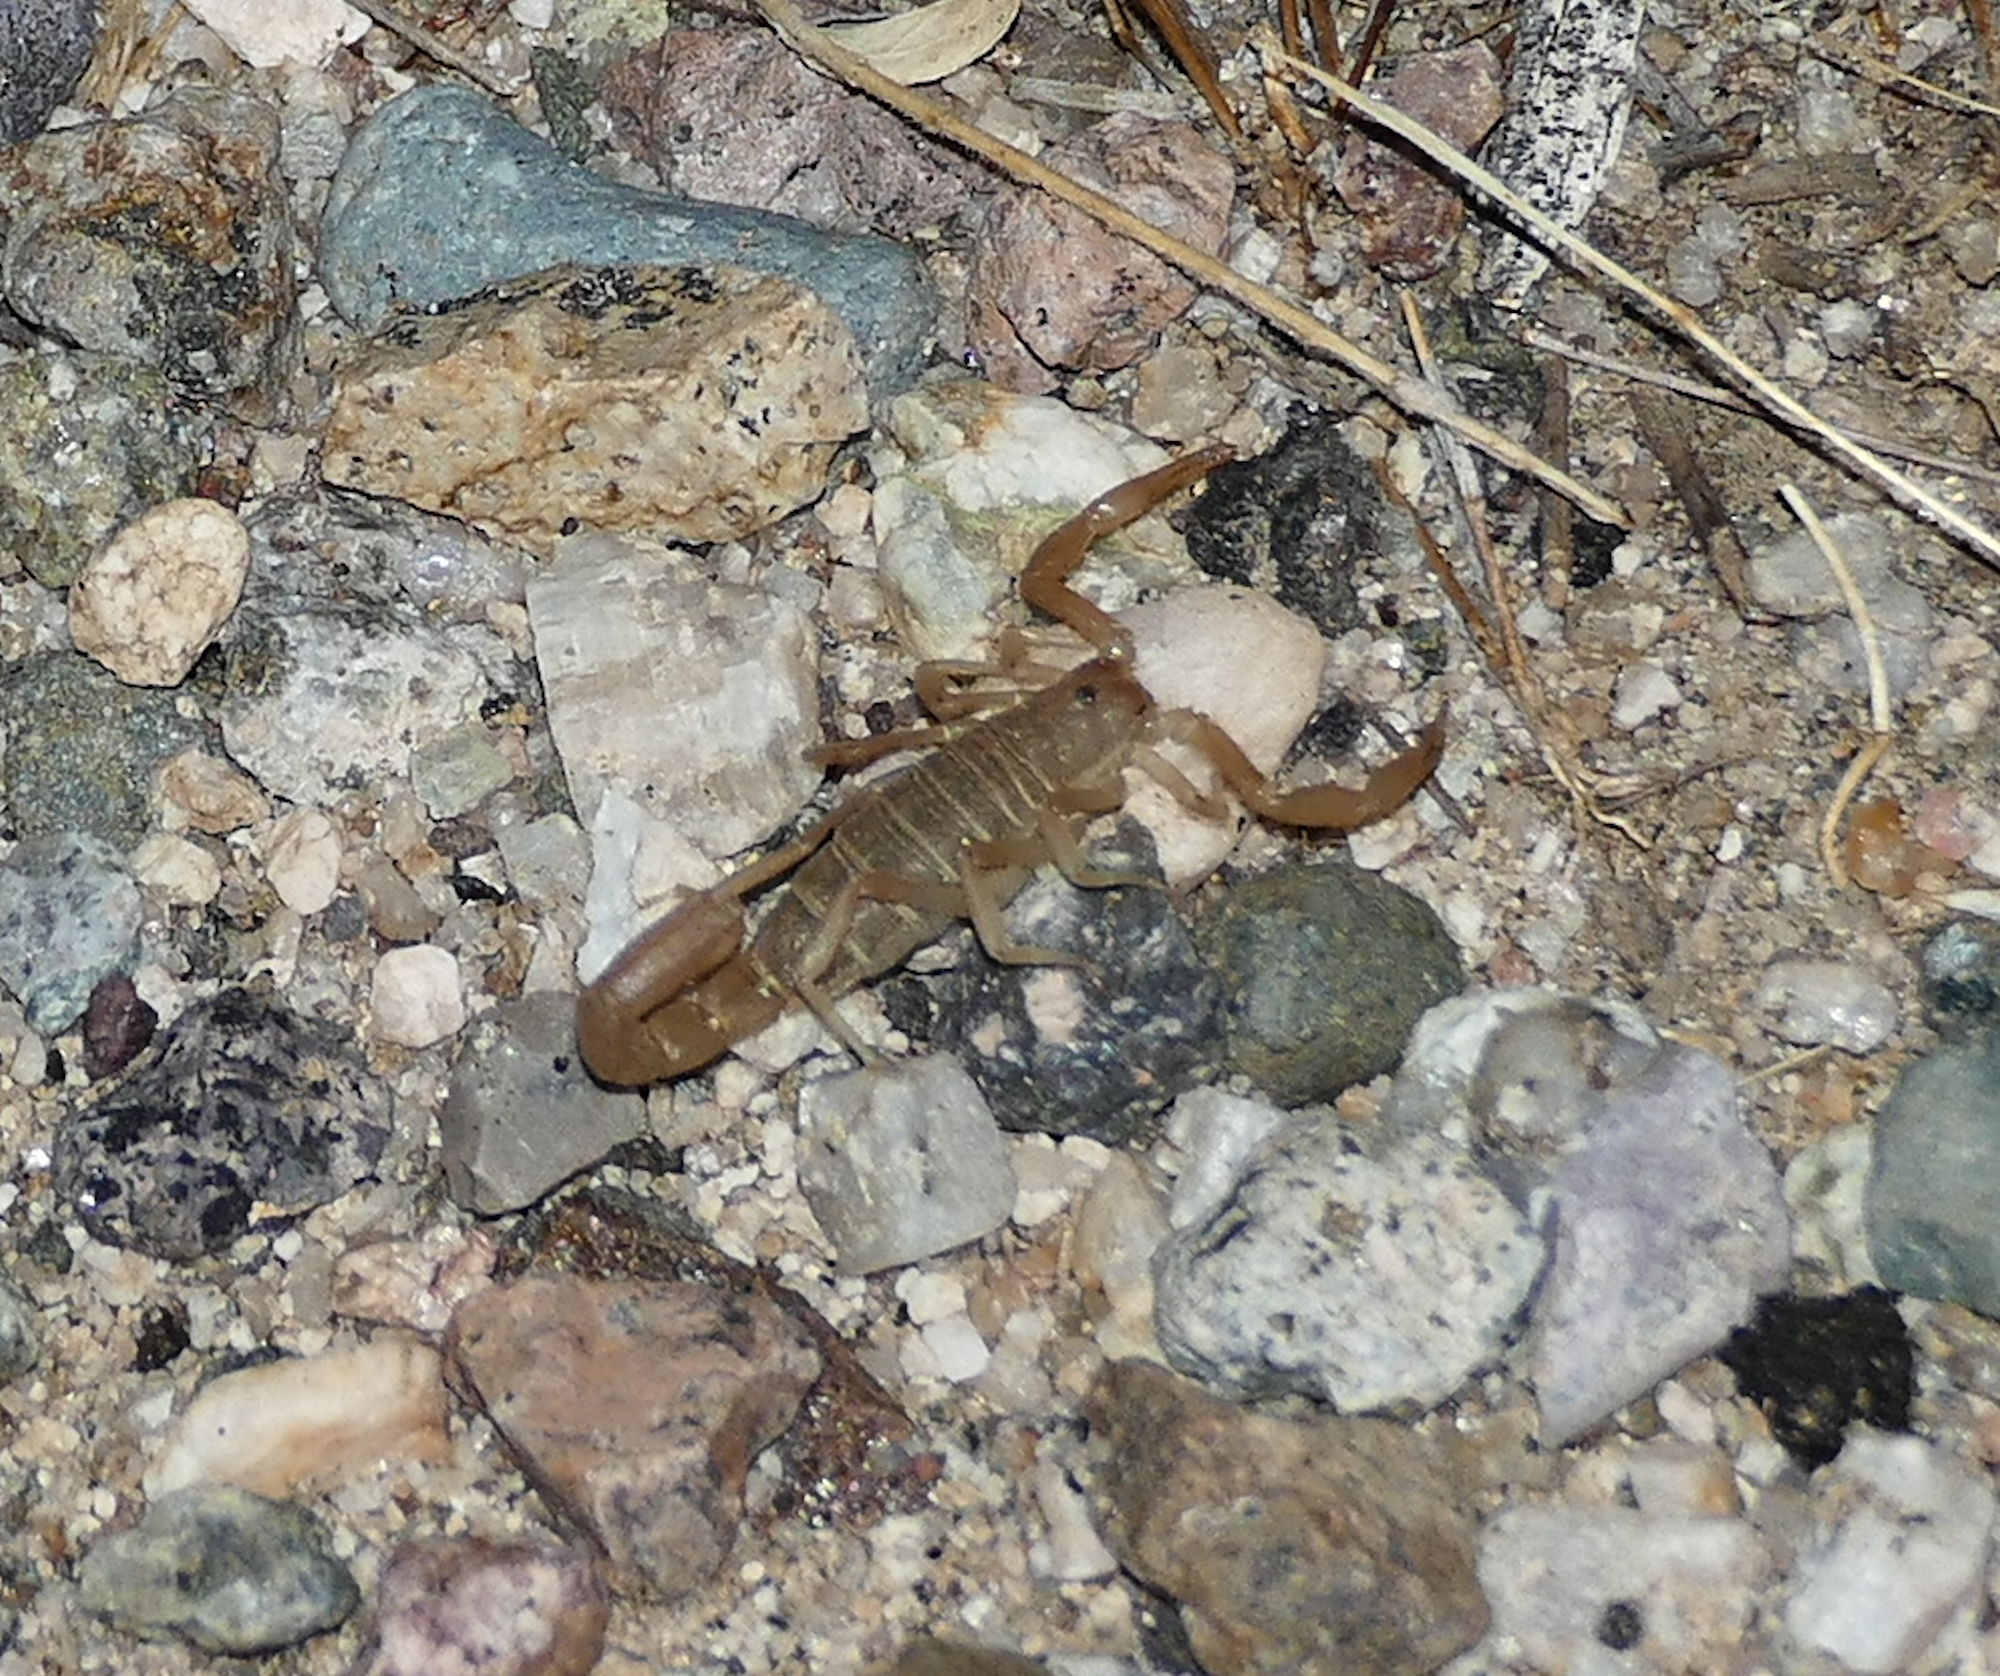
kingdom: Animalia
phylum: Arthropoda
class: Arachnida
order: Scorpiones
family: Vaejovidae
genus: Paravaejovis
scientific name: Paravaejovis confusus
